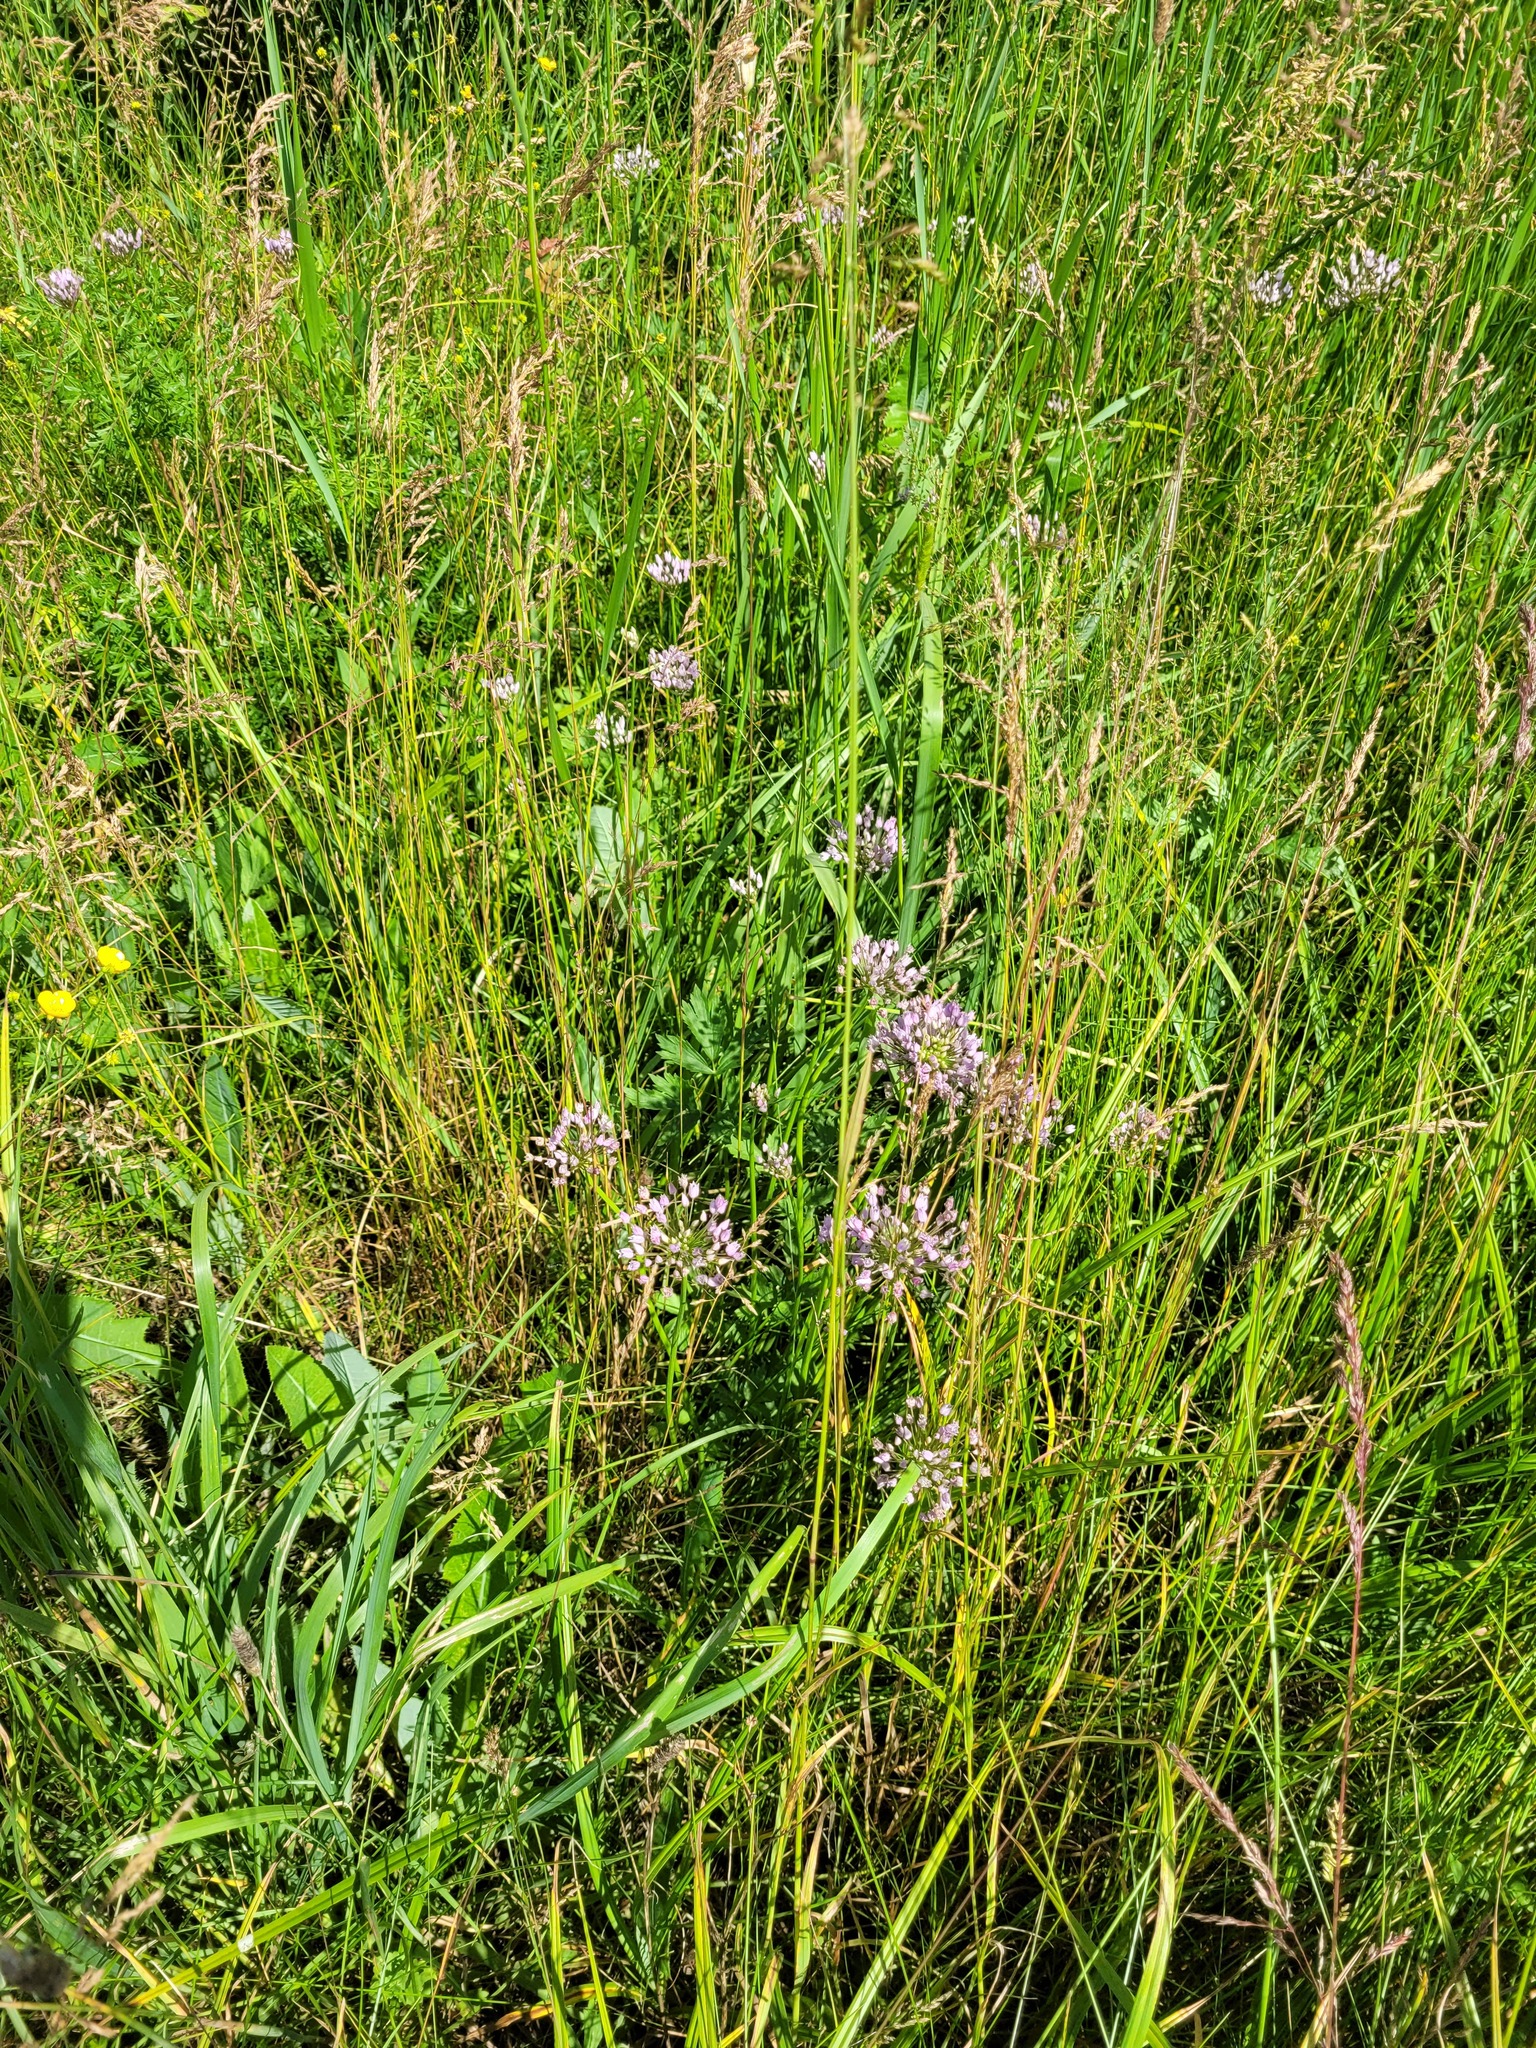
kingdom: Plantae
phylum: Tracheophyta
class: Liliopsida
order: Asparagales
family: Amaryllidaceae
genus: Allium
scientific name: Allium angulosum
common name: Mouse garlic
